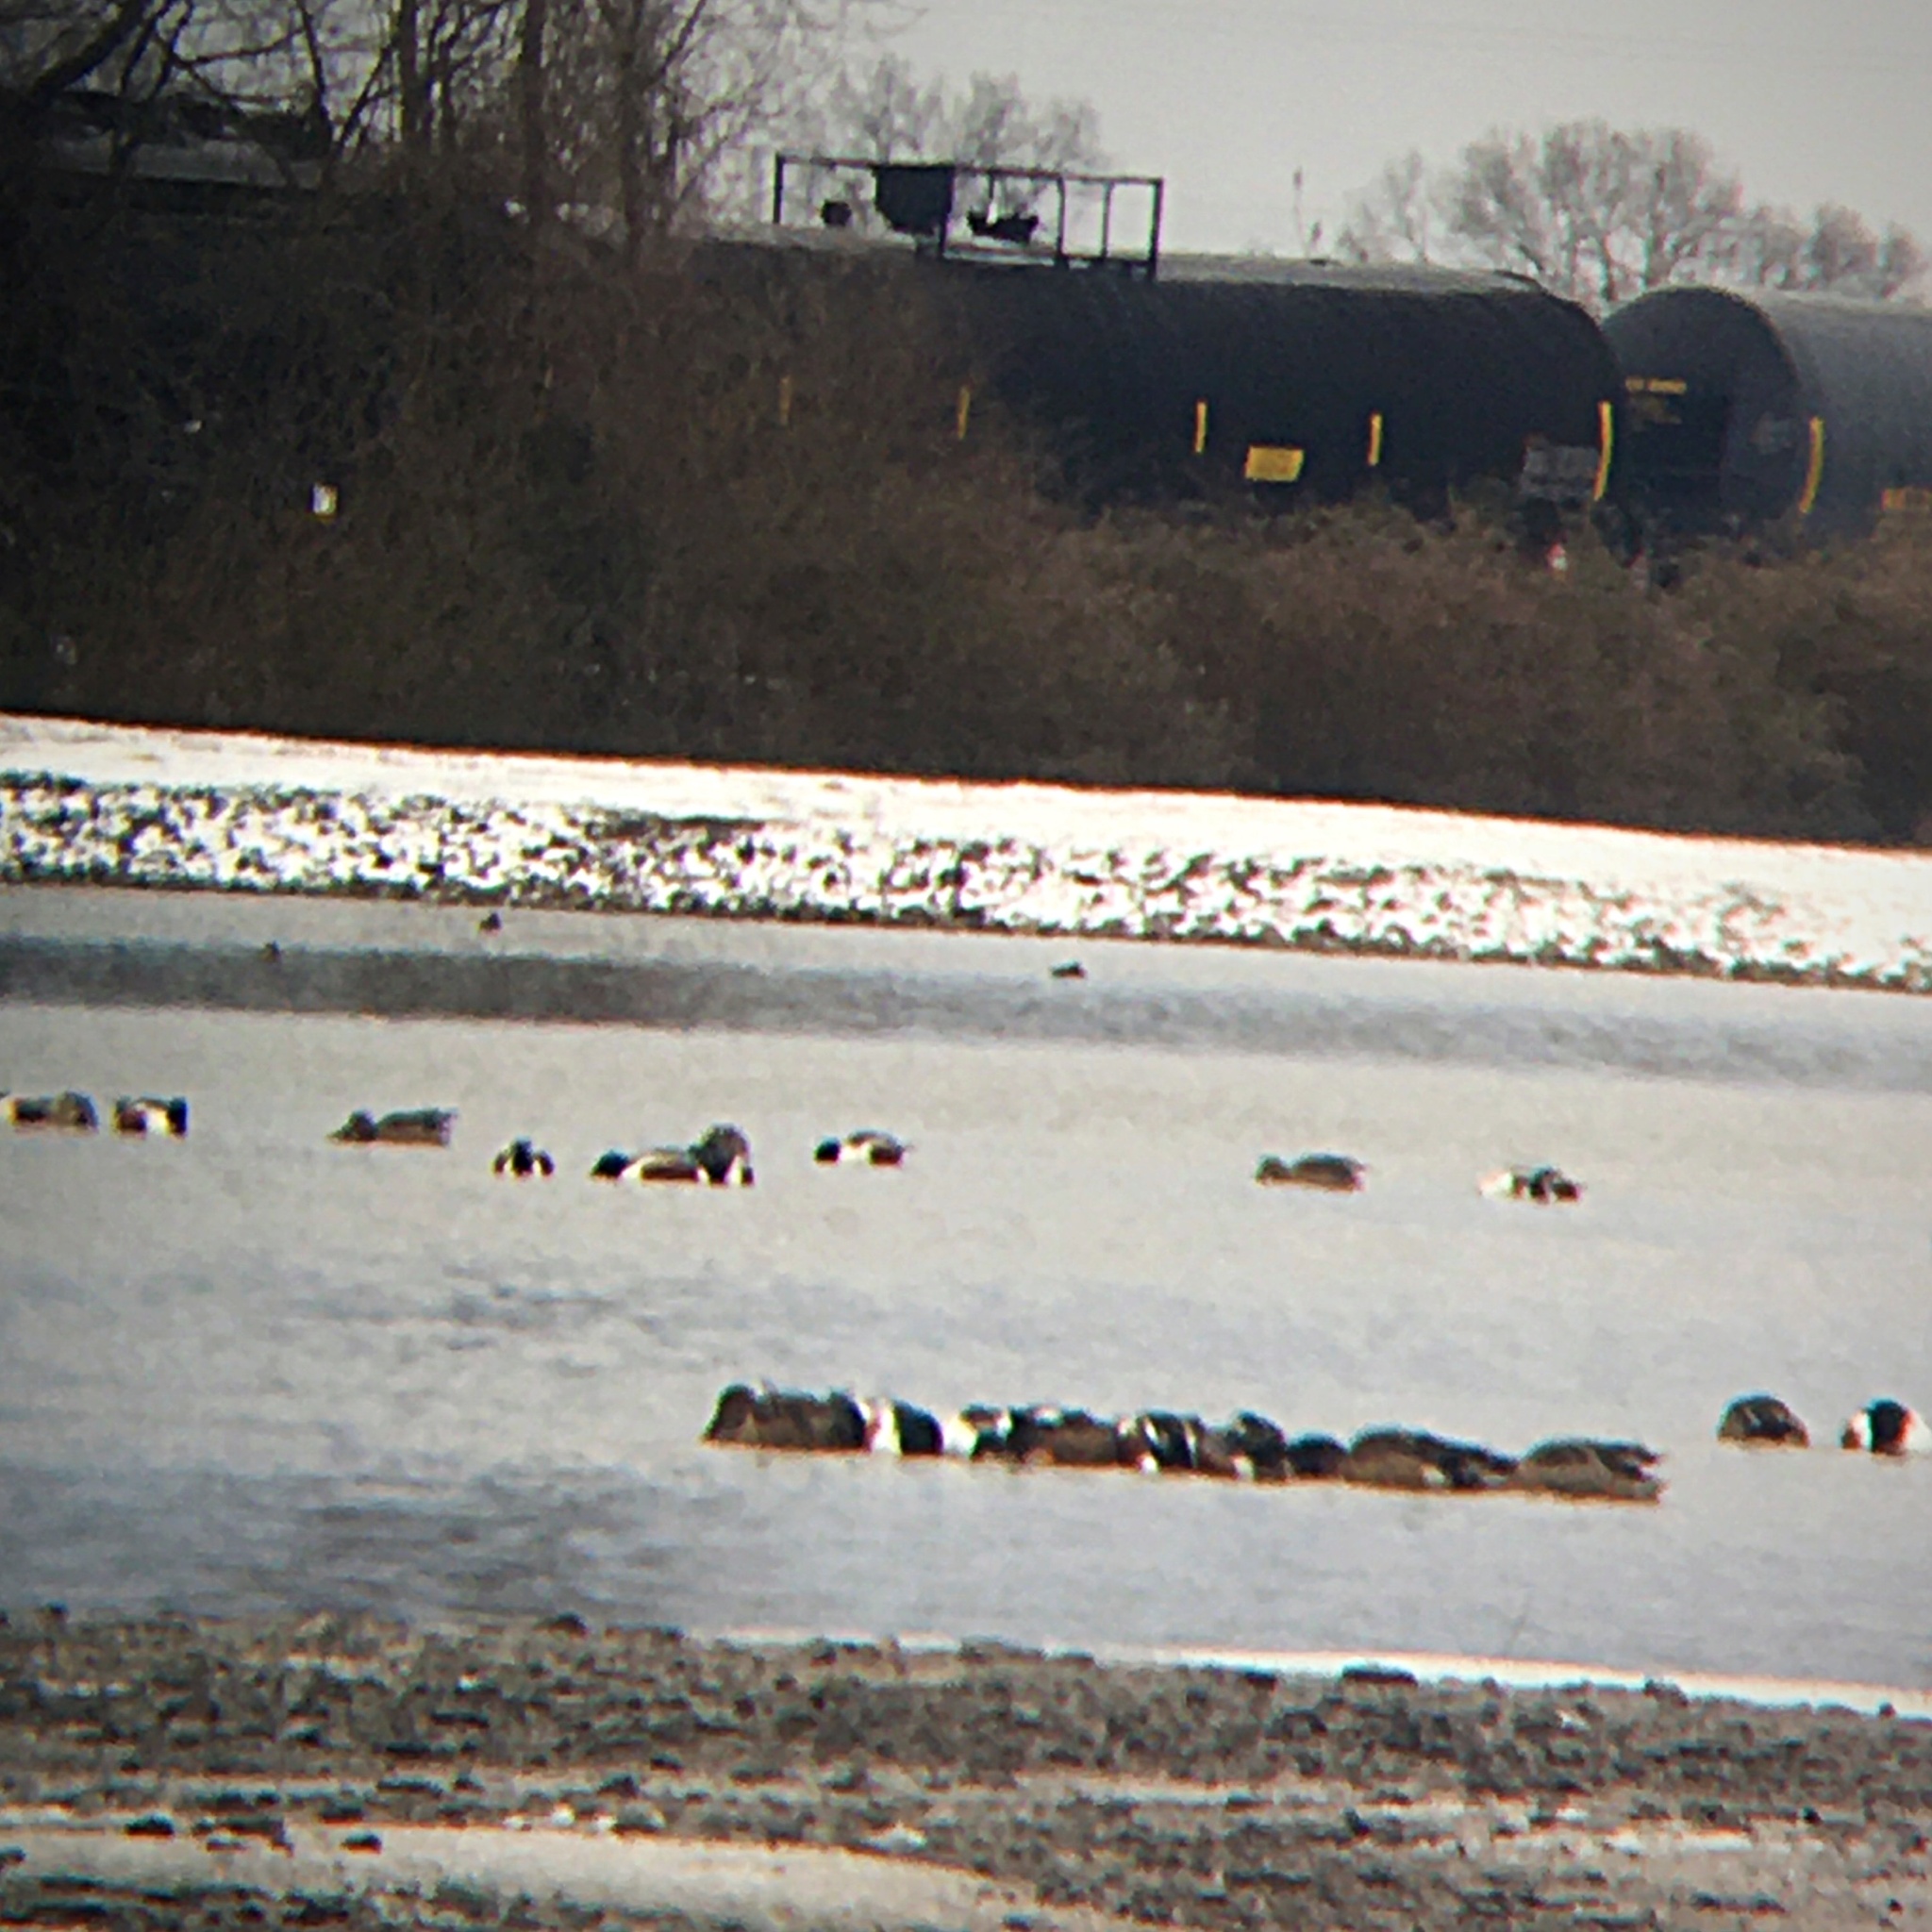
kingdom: Animalia
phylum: Chordata
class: Aves
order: Anseriformes
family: Anatidae
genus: Spatula
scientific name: Spatula clypeata
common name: Northern shoveler
